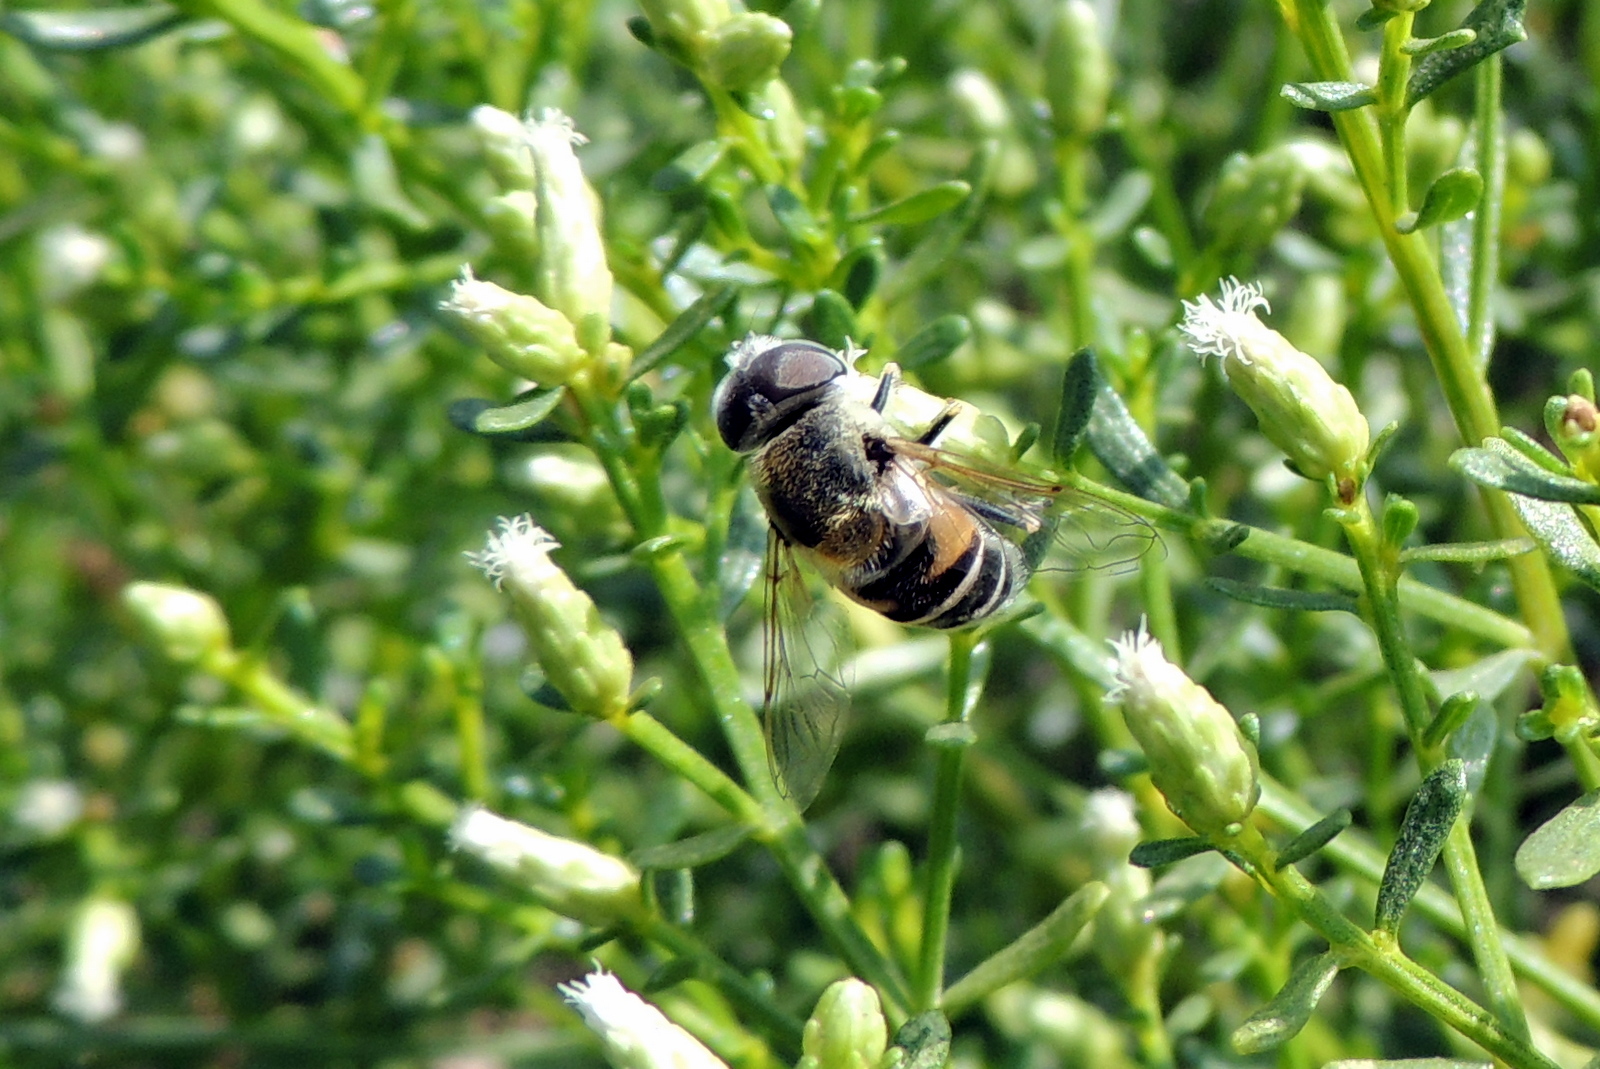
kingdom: Animalia
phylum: Arthropoda
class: Insecta
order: Diptera
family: Syrphidae
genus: Eristalis
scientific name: Eristalis stipator
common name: Yellow-shouldered drone fly
